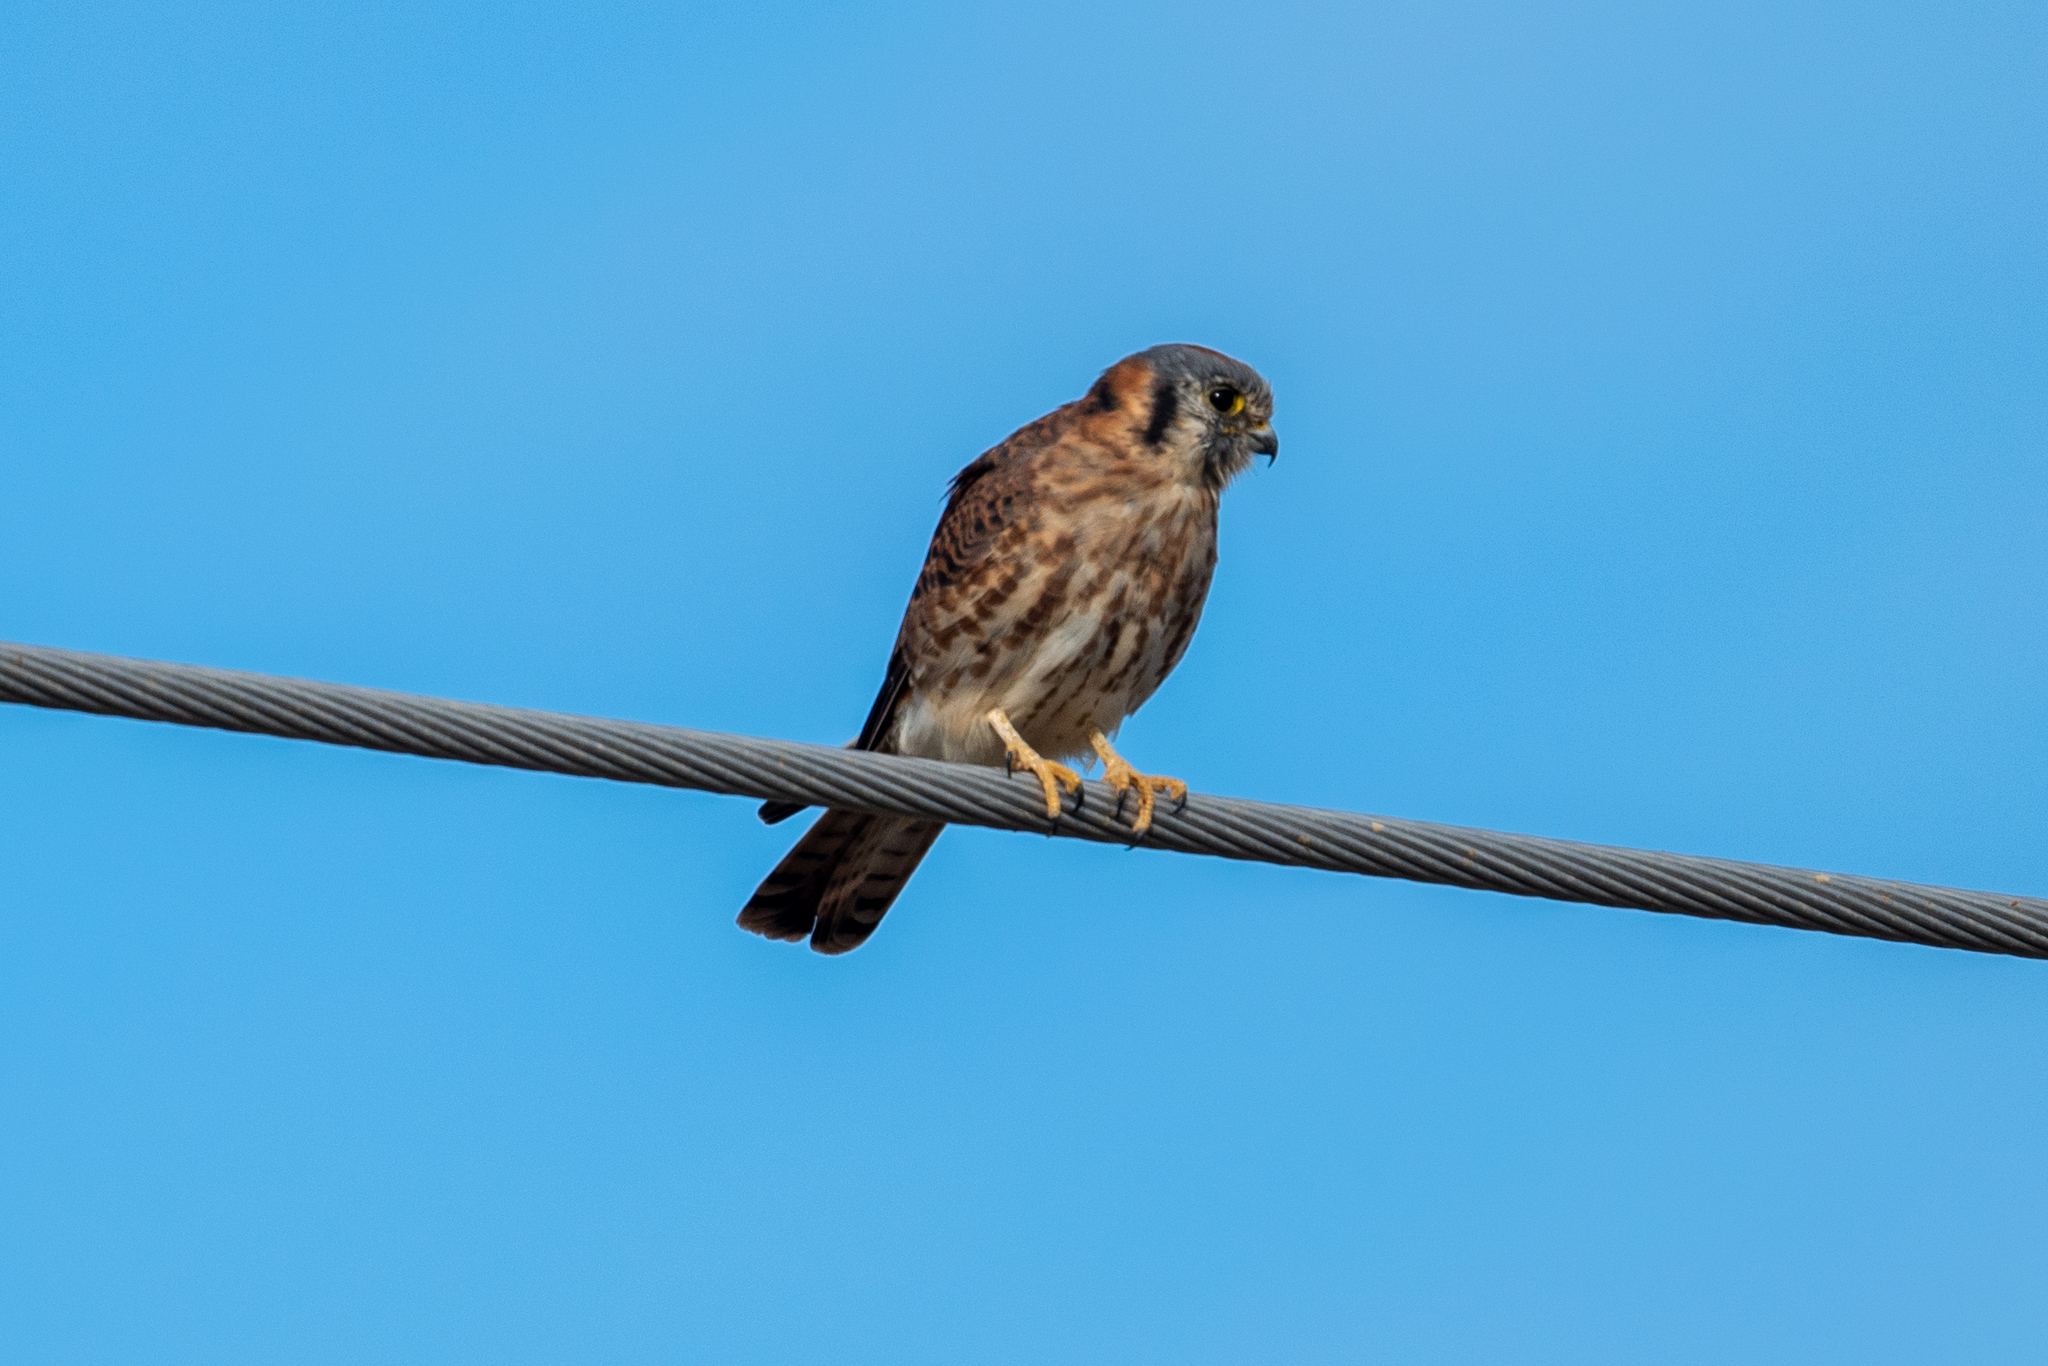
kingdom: Animalia
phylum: Chordata
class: Aves
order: Falconiformes
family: Falconidae
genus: Falco
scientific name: Falco sparverius
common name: American kestrel
